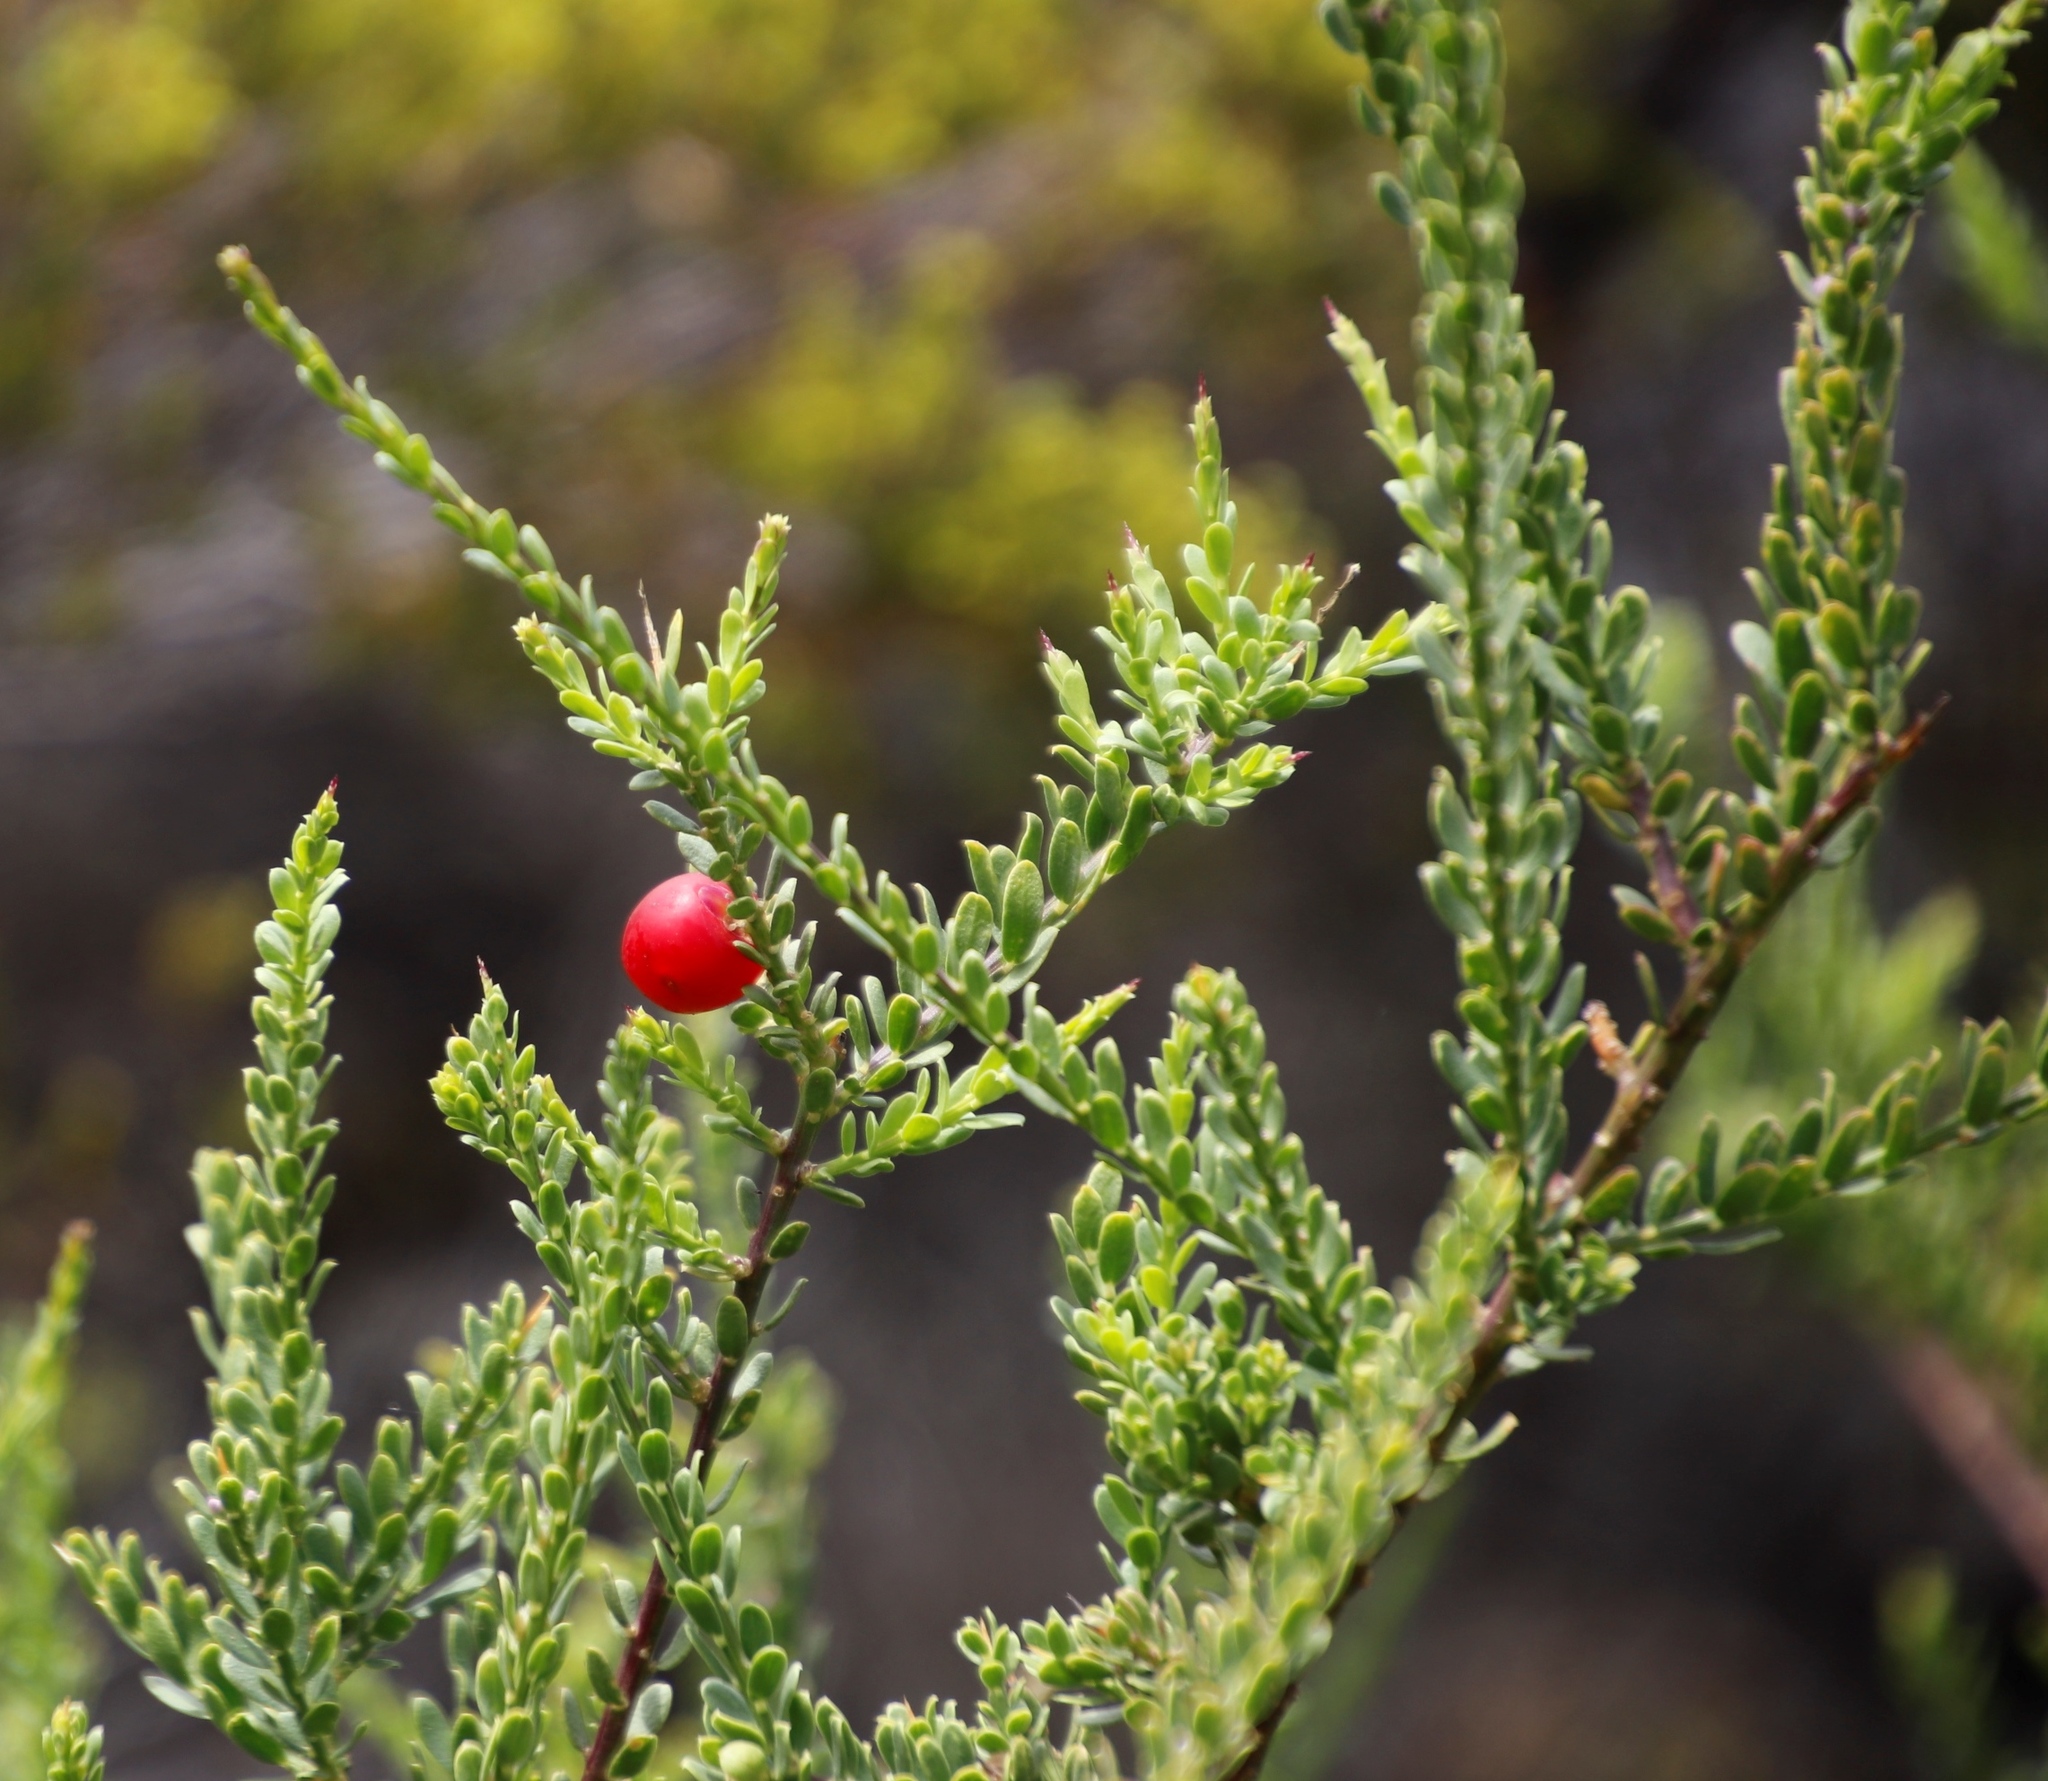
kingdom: Plantae
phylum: Tracheophyta
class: Magnoliopsida
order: Fabales
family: Polygalaceae
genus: Muraltia
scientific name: Muraltia spinosa
